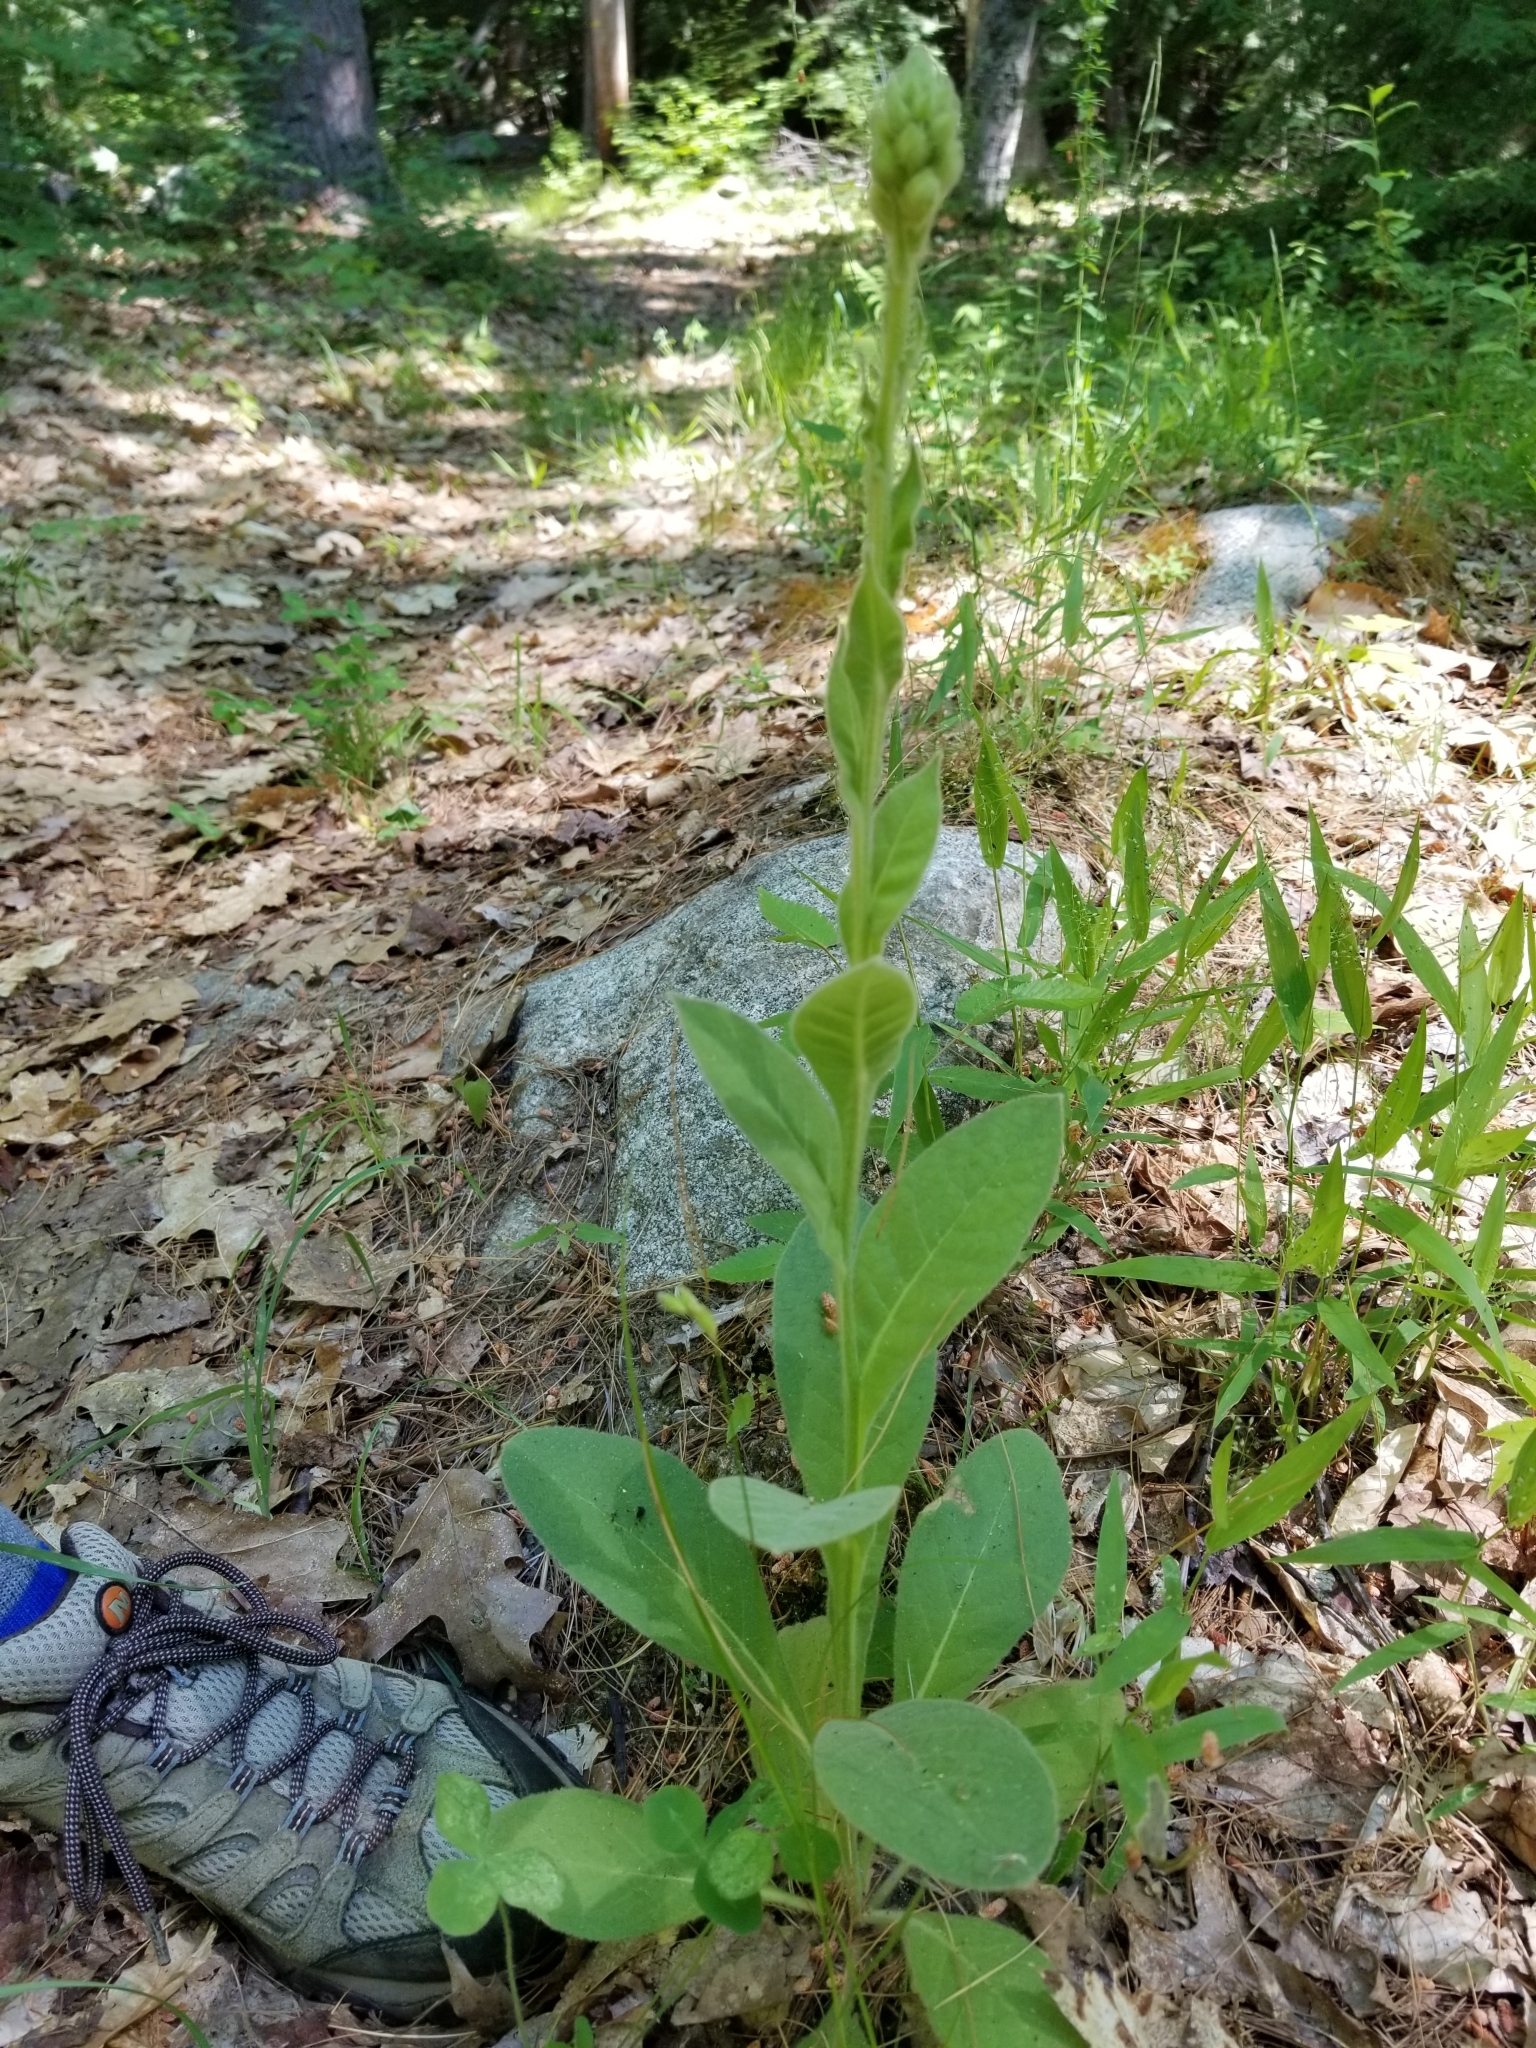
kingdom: Plantae
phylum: Tracheophyta
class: Magnoliopsida
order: Lamiales
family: Scrophulariaceae
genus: Verbascum
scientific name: Verbascum thapsus
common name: Common mullein
